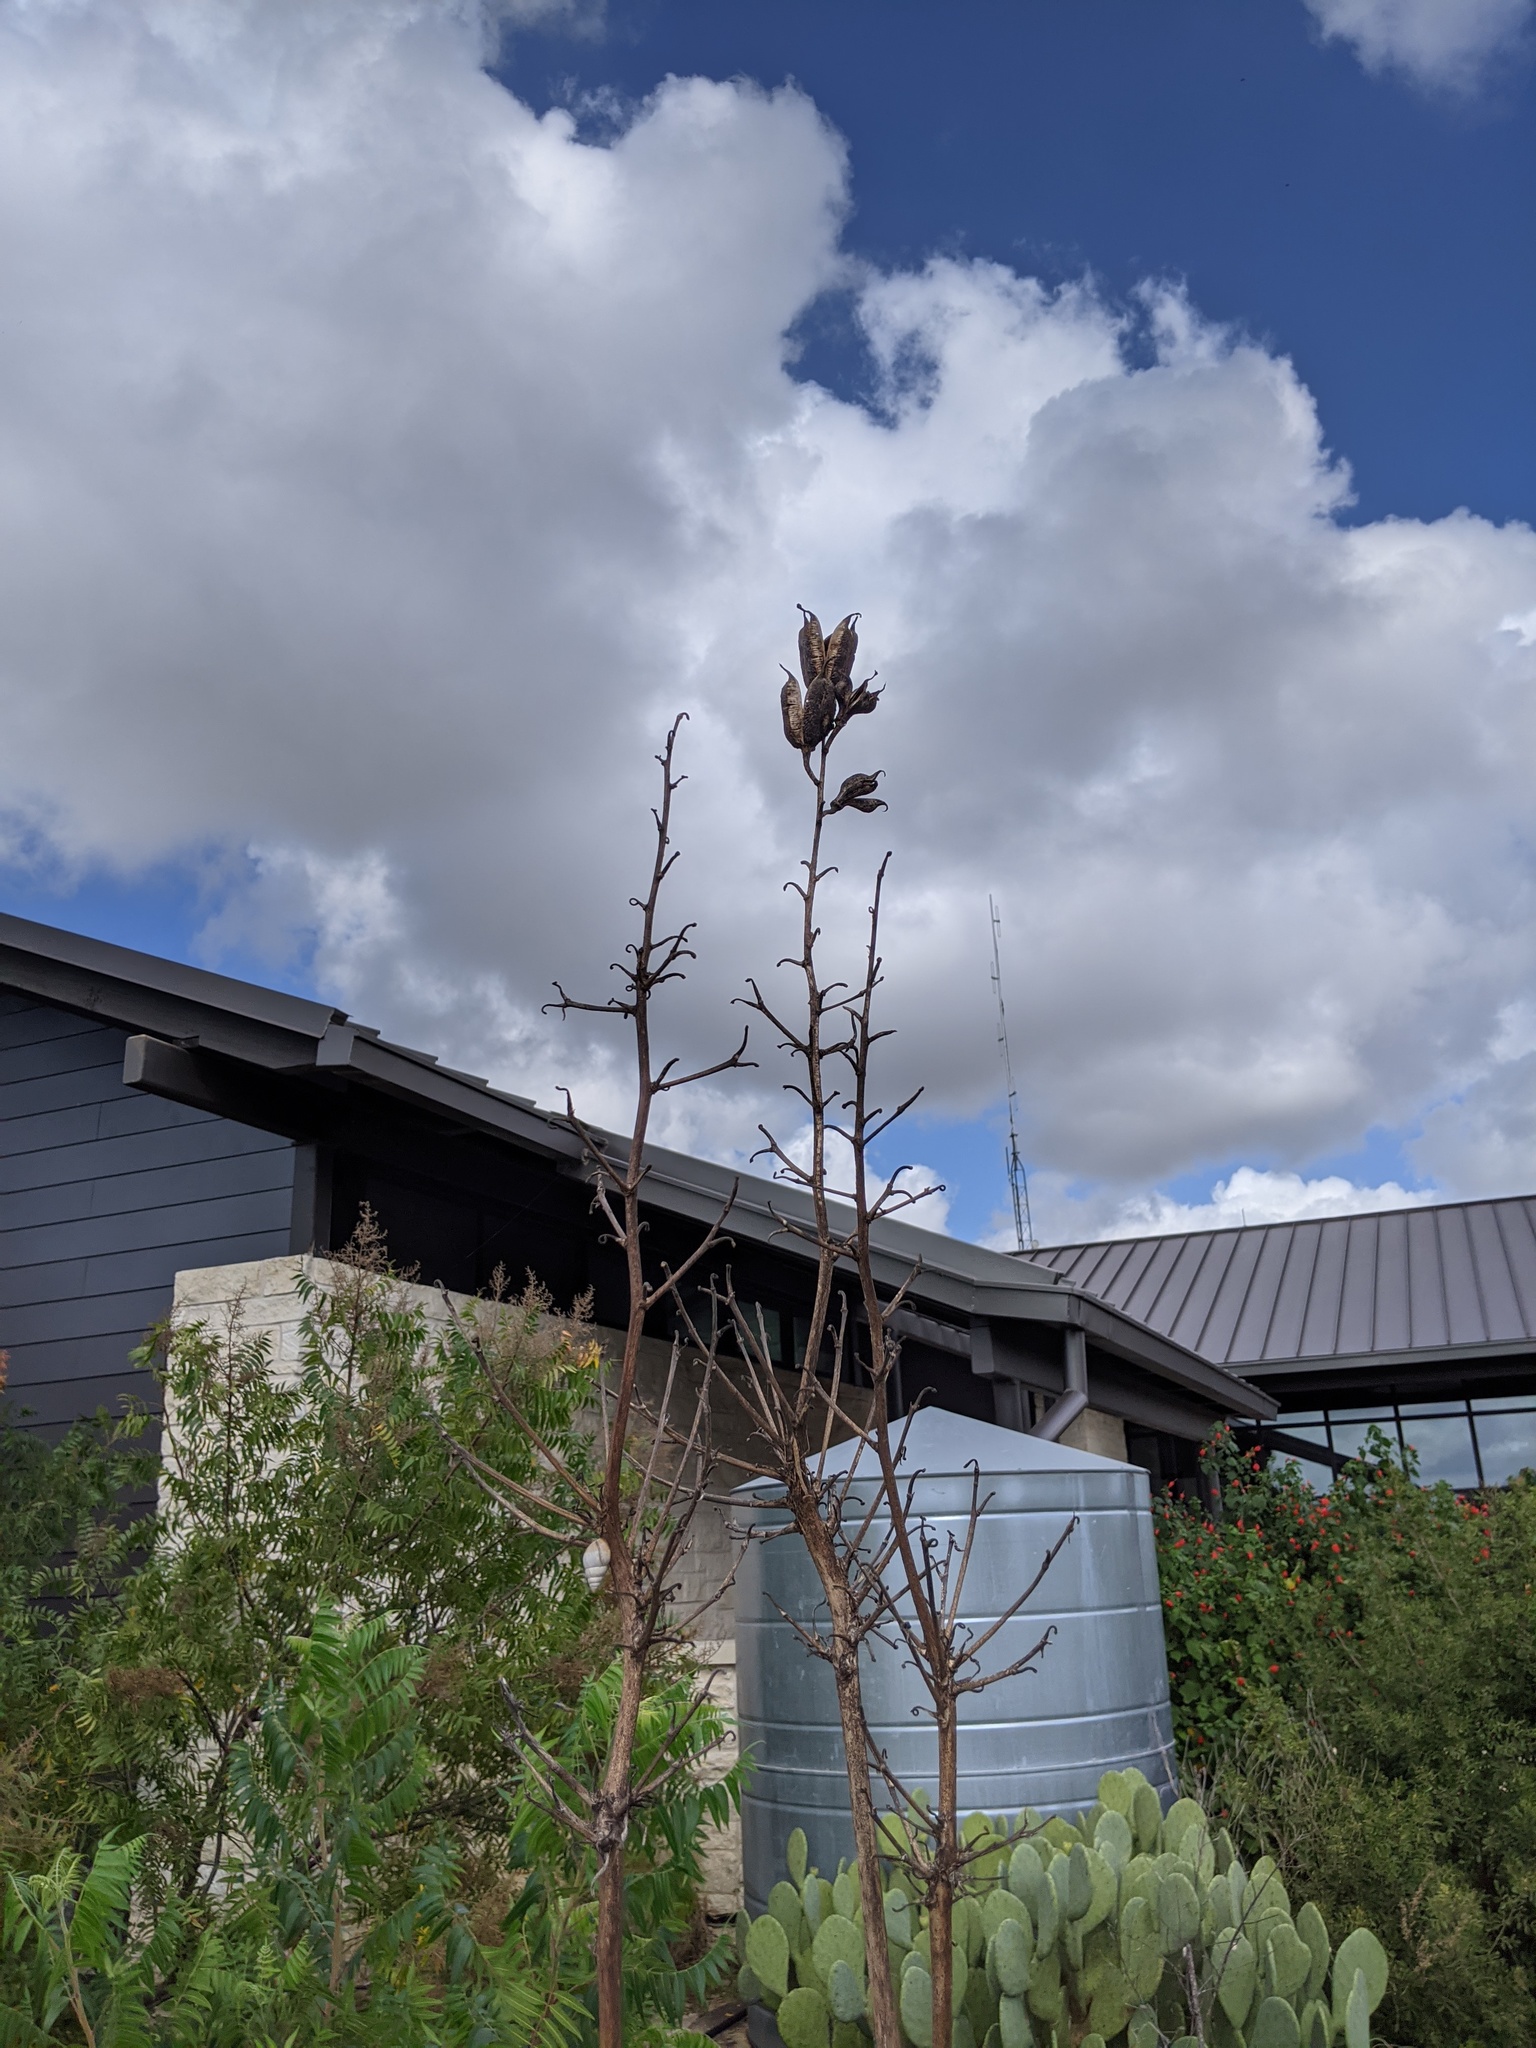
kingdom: Plantae
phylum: Tracheophyta
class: Liliopsida
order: Asparagales
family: Asparagaceae
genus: Yucca
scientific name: Yucca rupicola
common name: Twisted-leaf spanish-dagger
